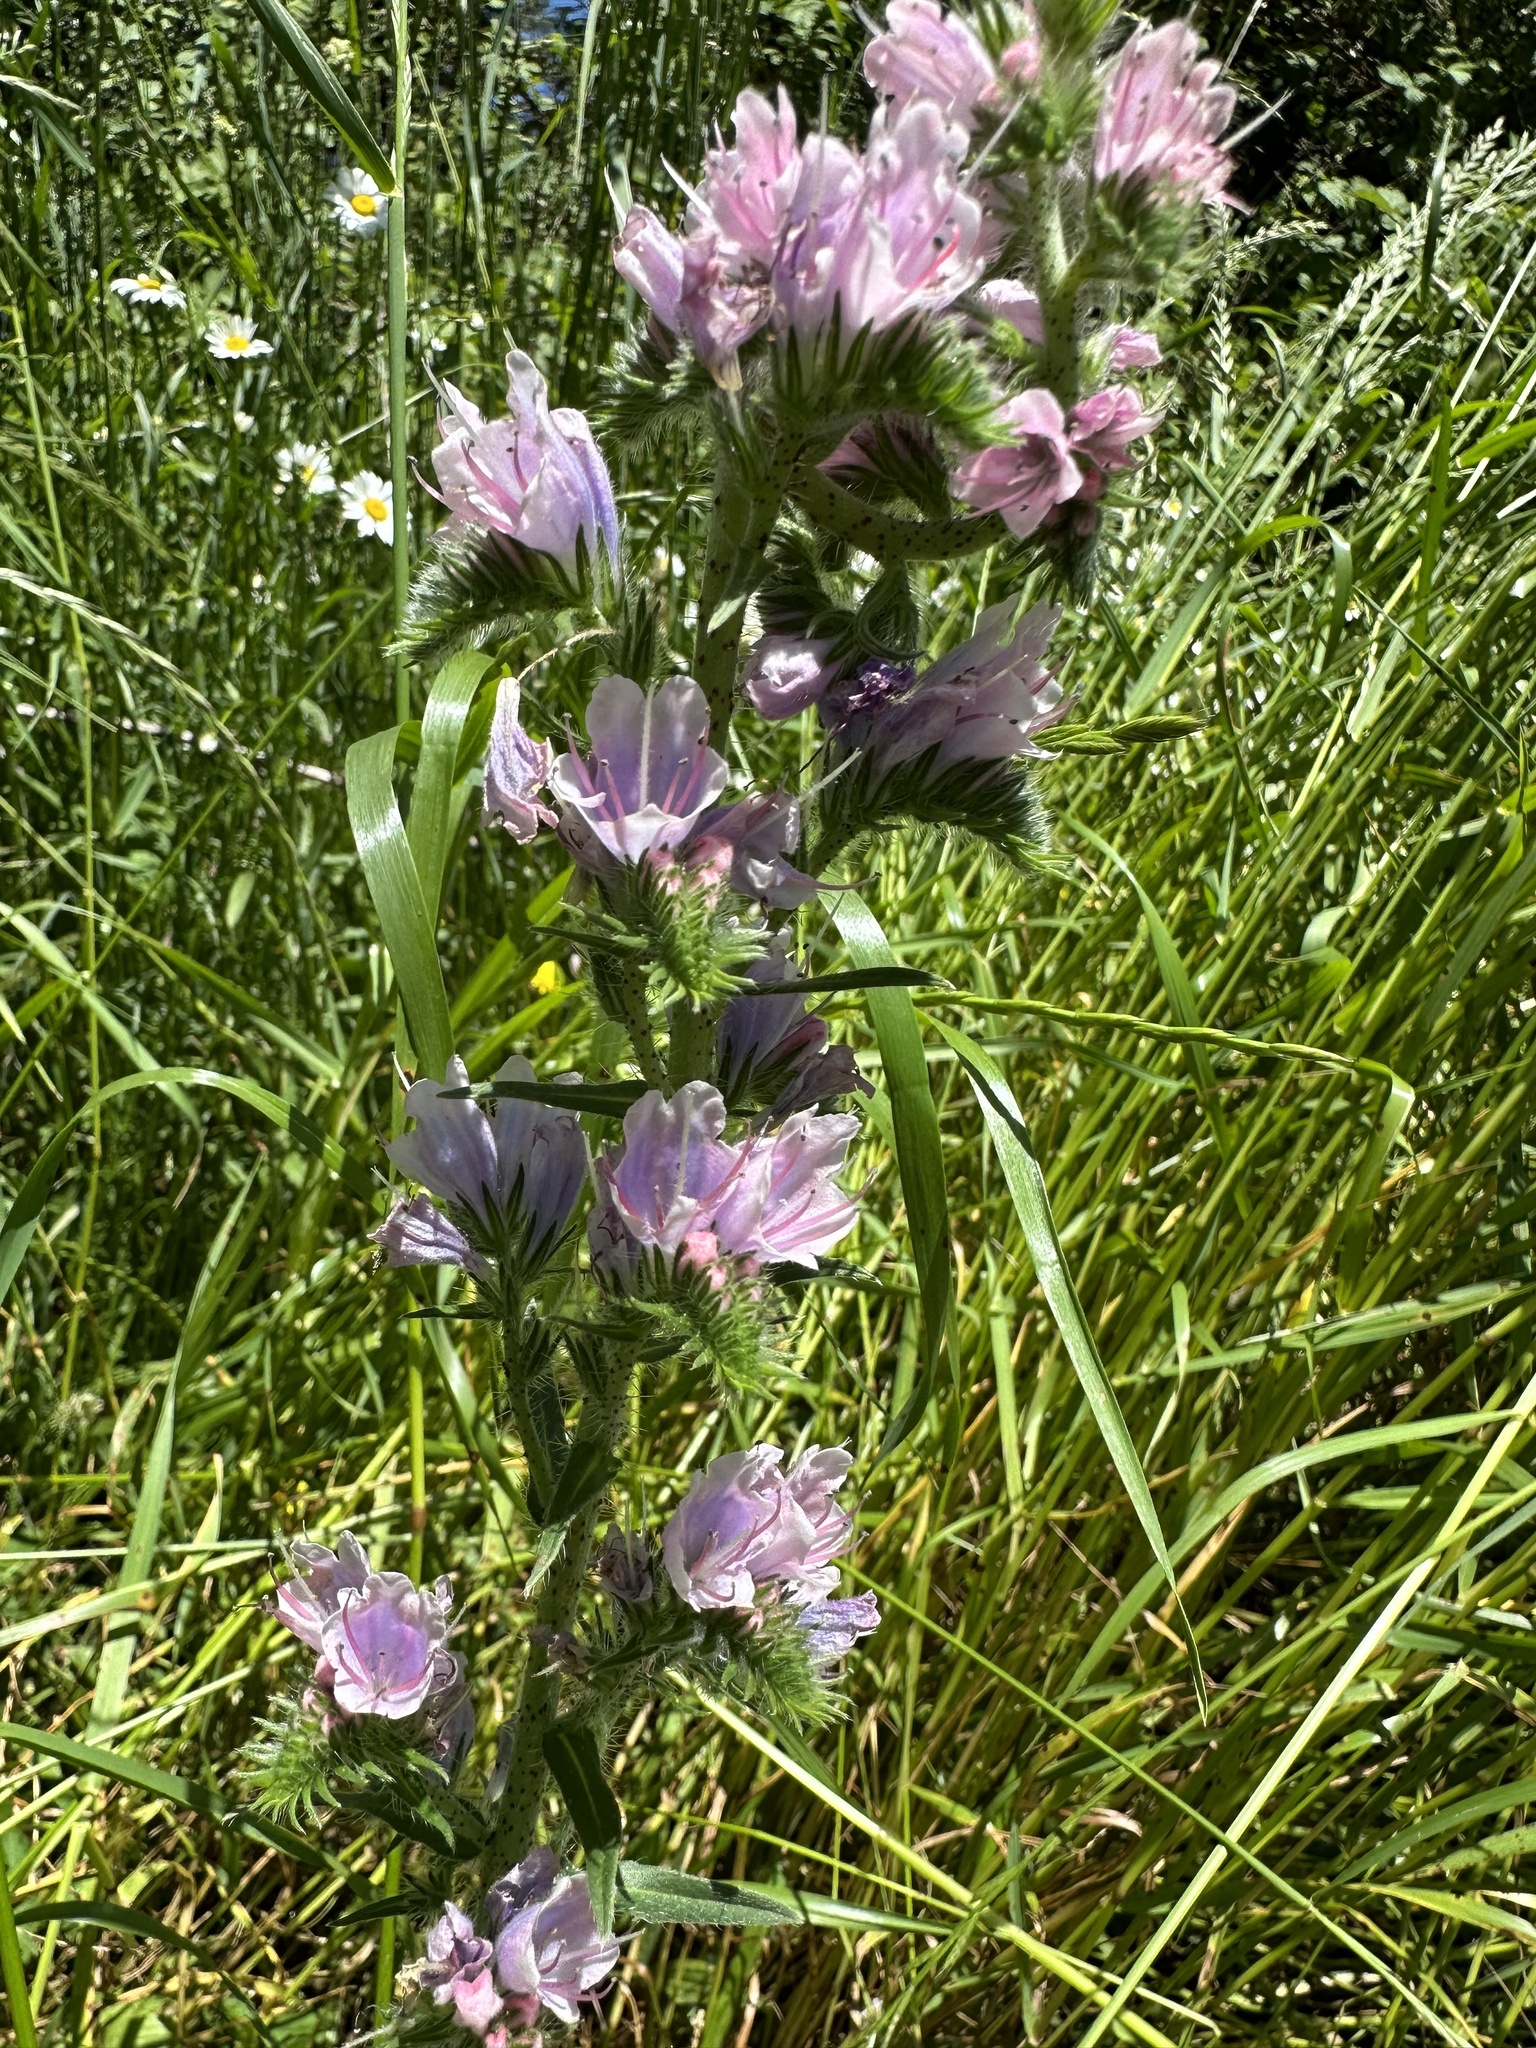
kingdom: Plantae
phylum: Tracheophyta
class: Magnoliopsida
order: Boraginales
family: Boraginaceae
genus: Echium
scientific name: Echium vulgare
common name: Common viper's bugloss
